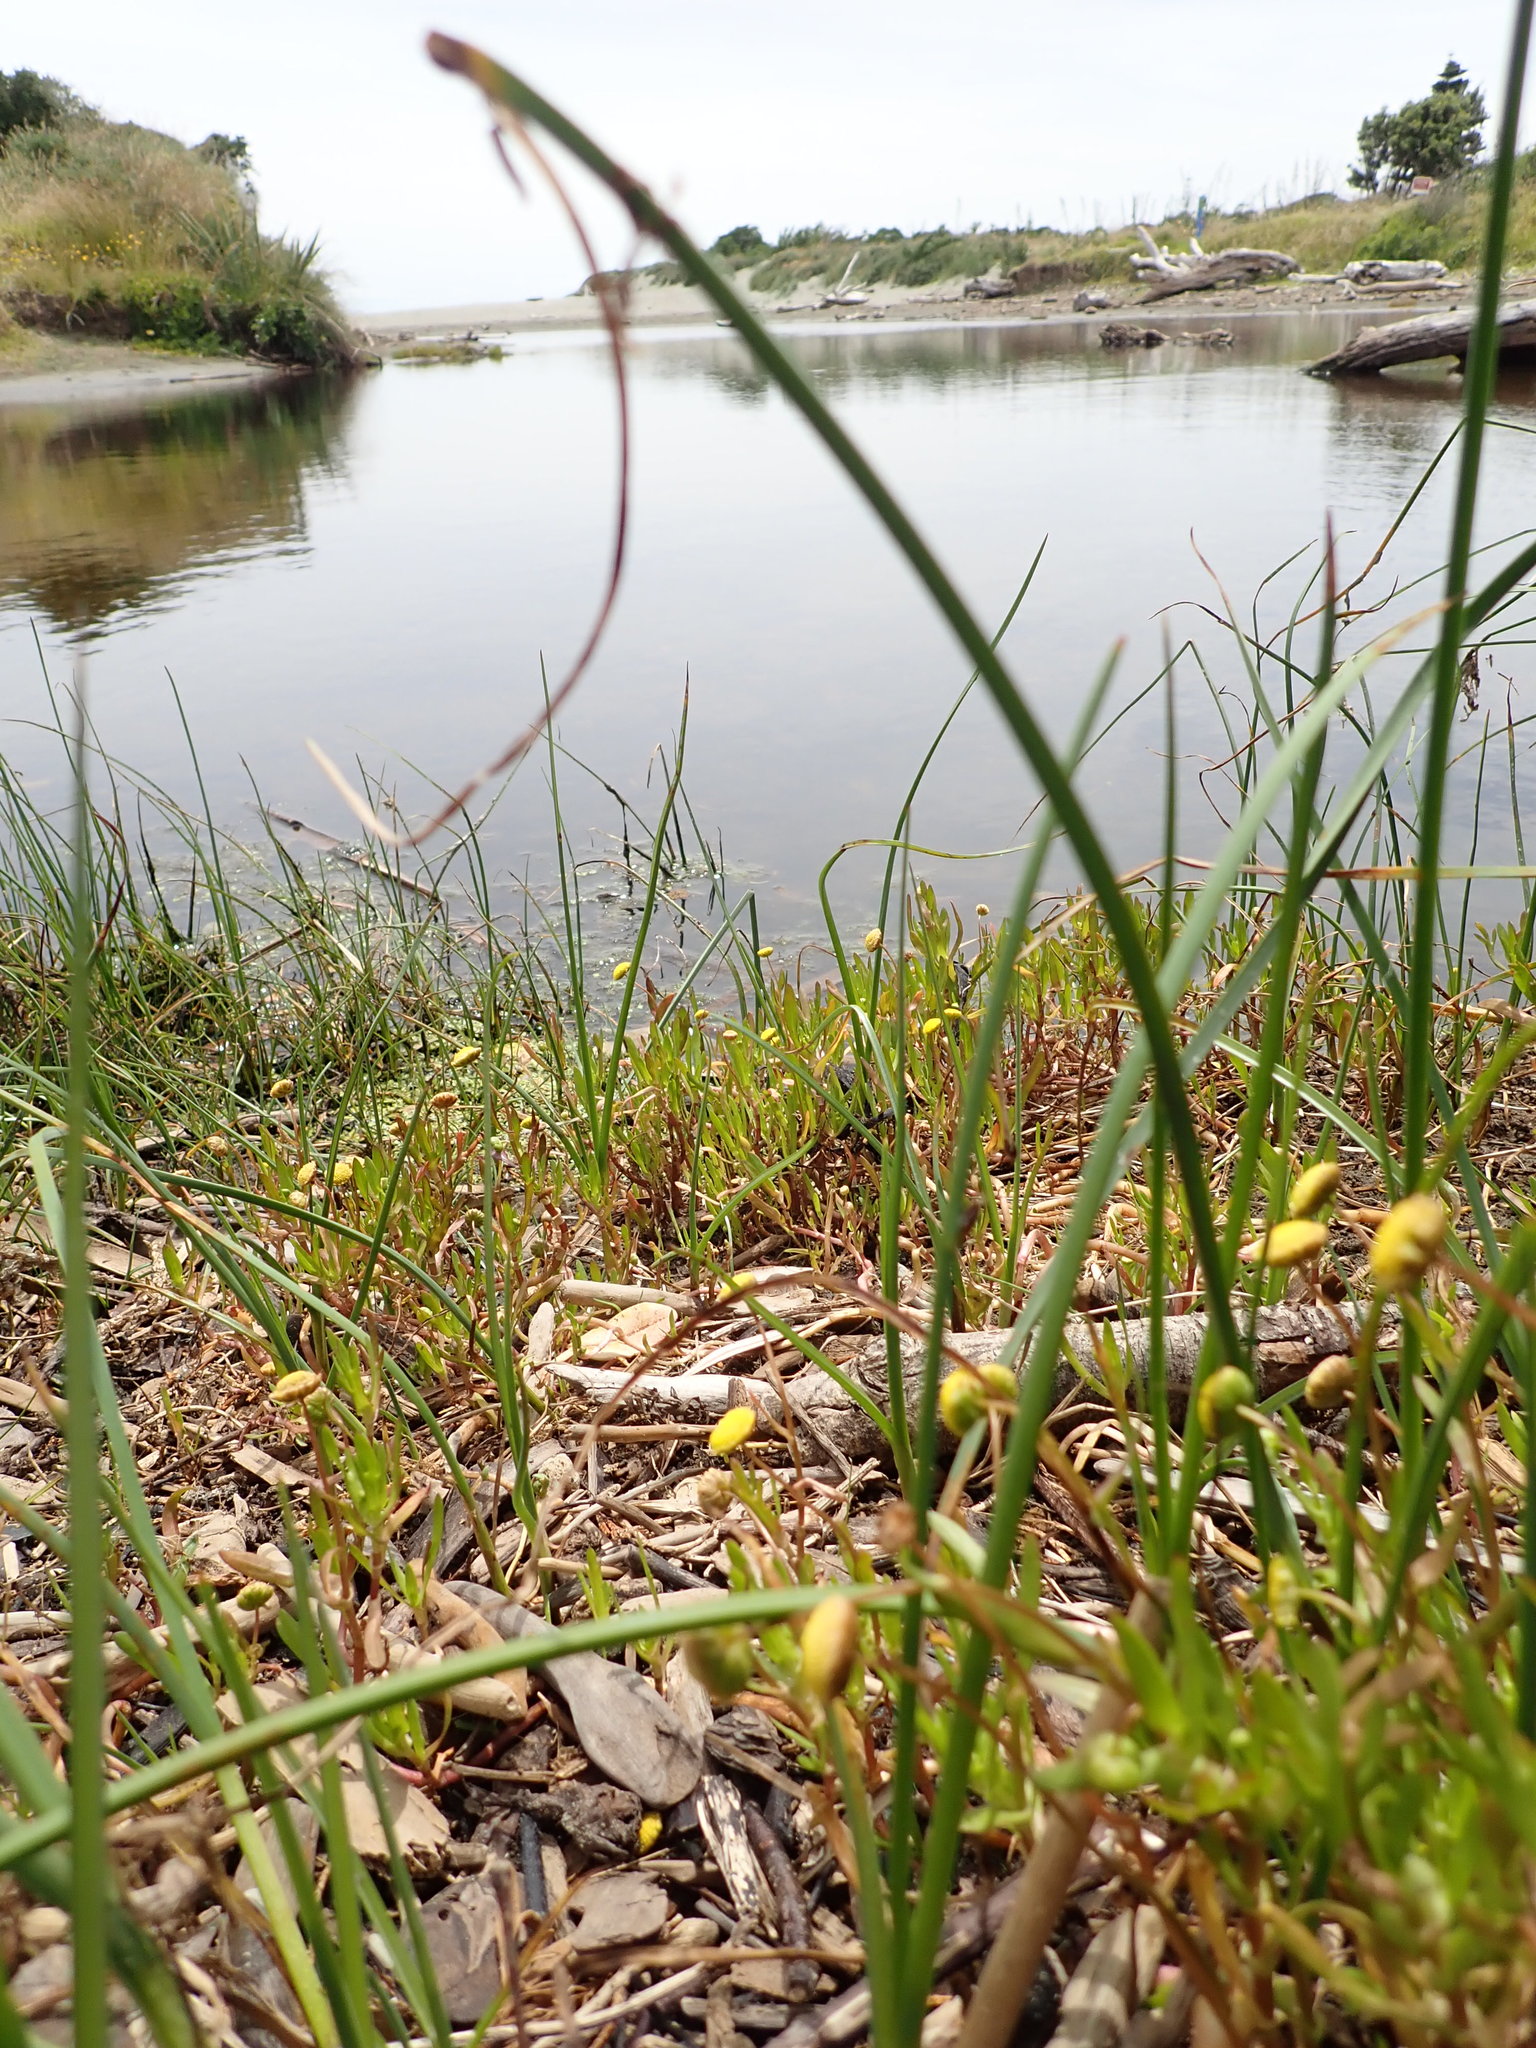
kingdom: Plantae
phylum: Tracheophyta
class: Magnoliopsida
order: Asterales
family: Asteraceae
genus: Cotula
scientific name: Cotula coronopifolia
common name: Buttonweed
